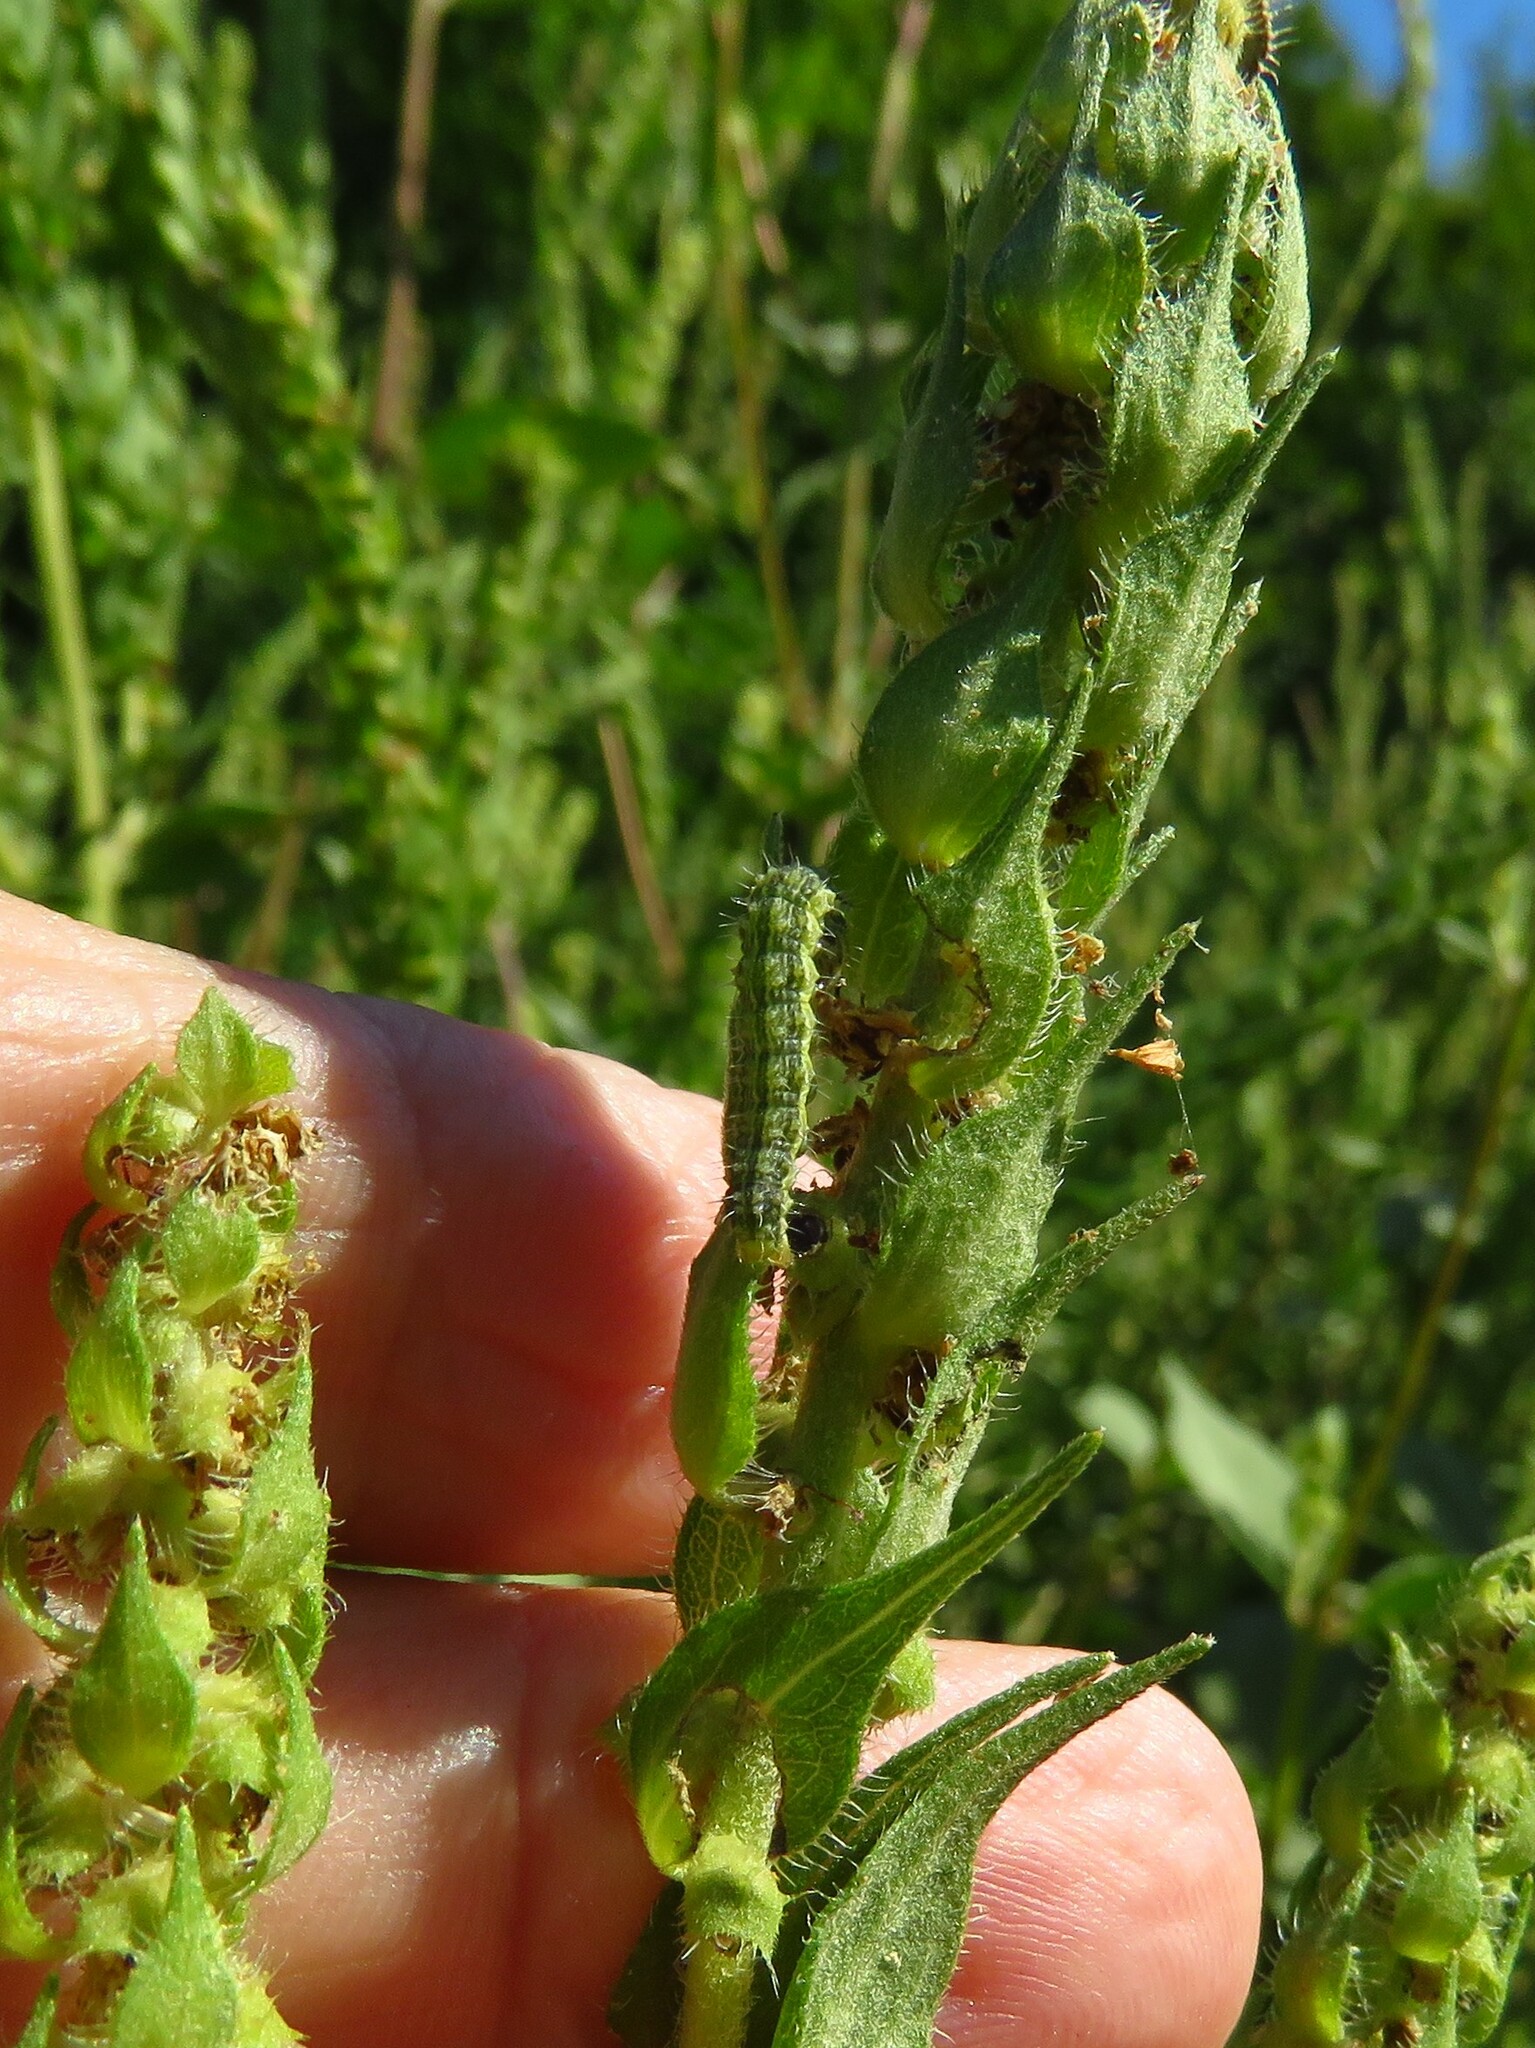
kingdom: Animalia
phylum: Arthropoda
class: Insecta
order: Lepidoptera
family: Noctuidae
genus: Schinia
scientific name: Schinia gracilenta
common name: Slender flower moth
